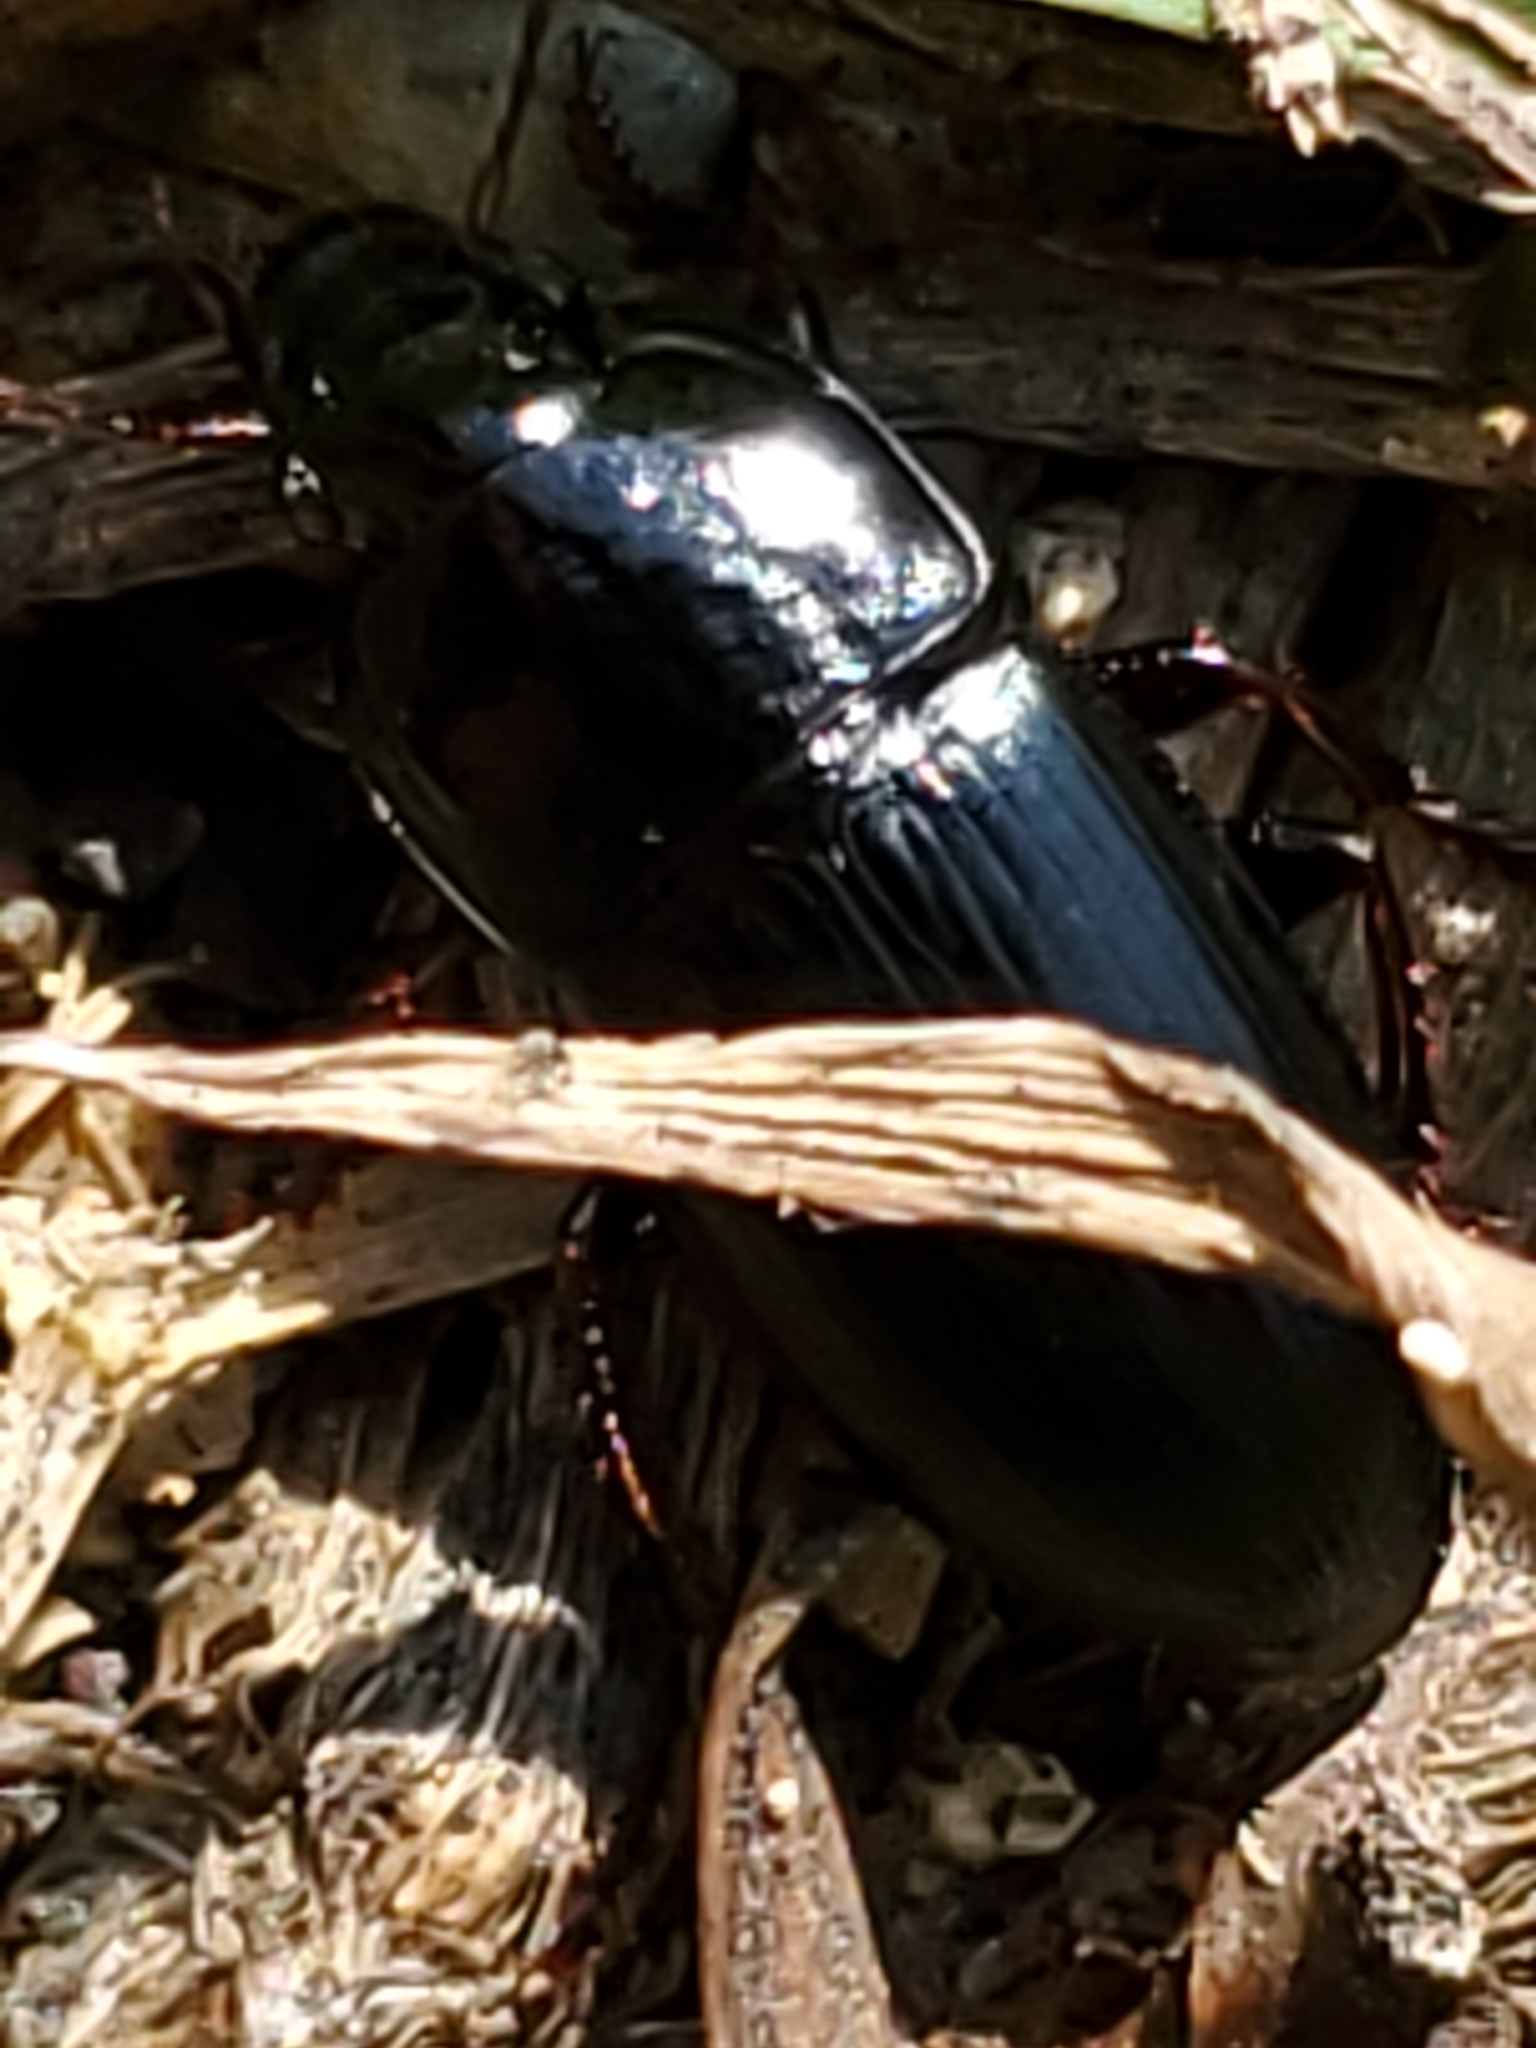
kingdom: Animalia
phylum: Arthropoda
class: Insecta
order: Coleoptera
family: Carabidae
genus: Harpalus
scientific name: Harpalus
